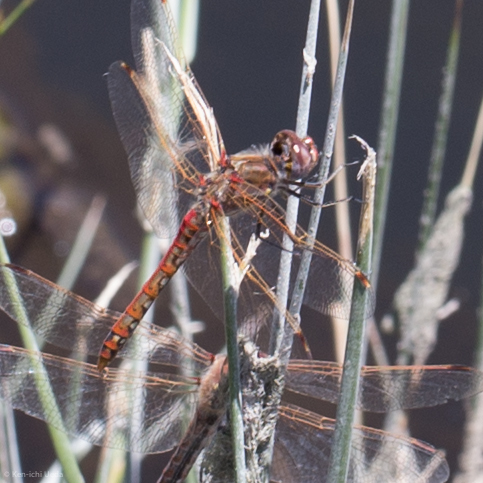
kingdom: Animalia
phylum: Arthropoda
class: Insecta
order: Odonata
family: Libellulidae
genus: Sympetrum
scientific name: Sympetrum corruptum
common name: Variegated meadowhawk
